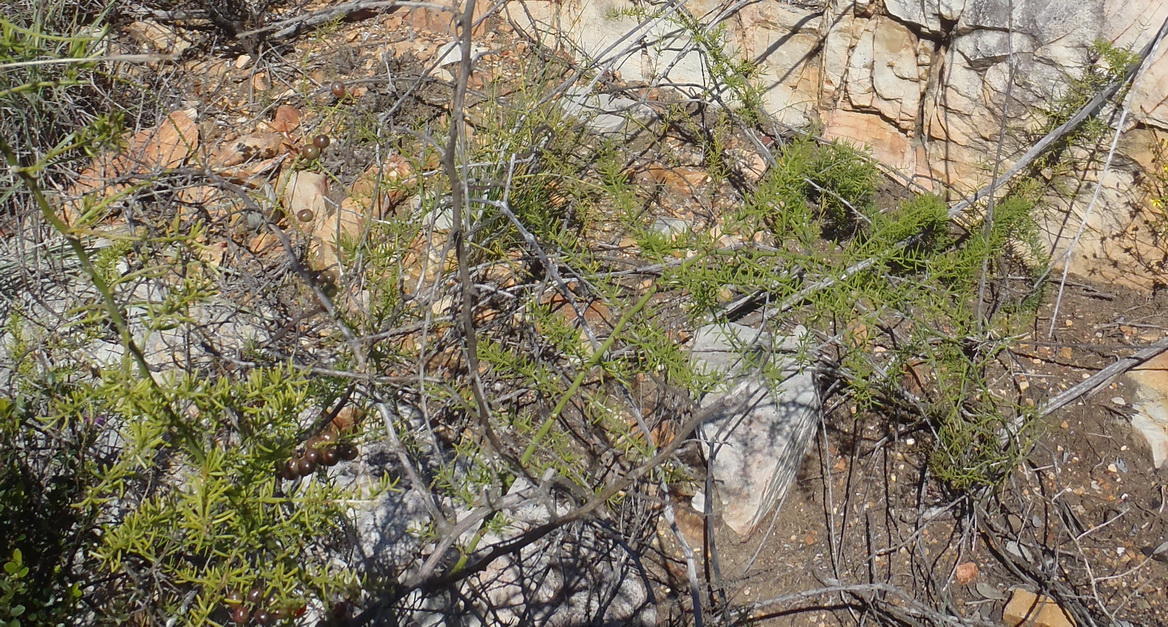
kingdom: Plantae
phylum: Tracheophyta
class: Liliopsida
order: Asparagales
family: Asparagaceae
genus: Asparagus
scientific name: Asparagus aethiopicus
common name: Sprenger's asparagus fern
